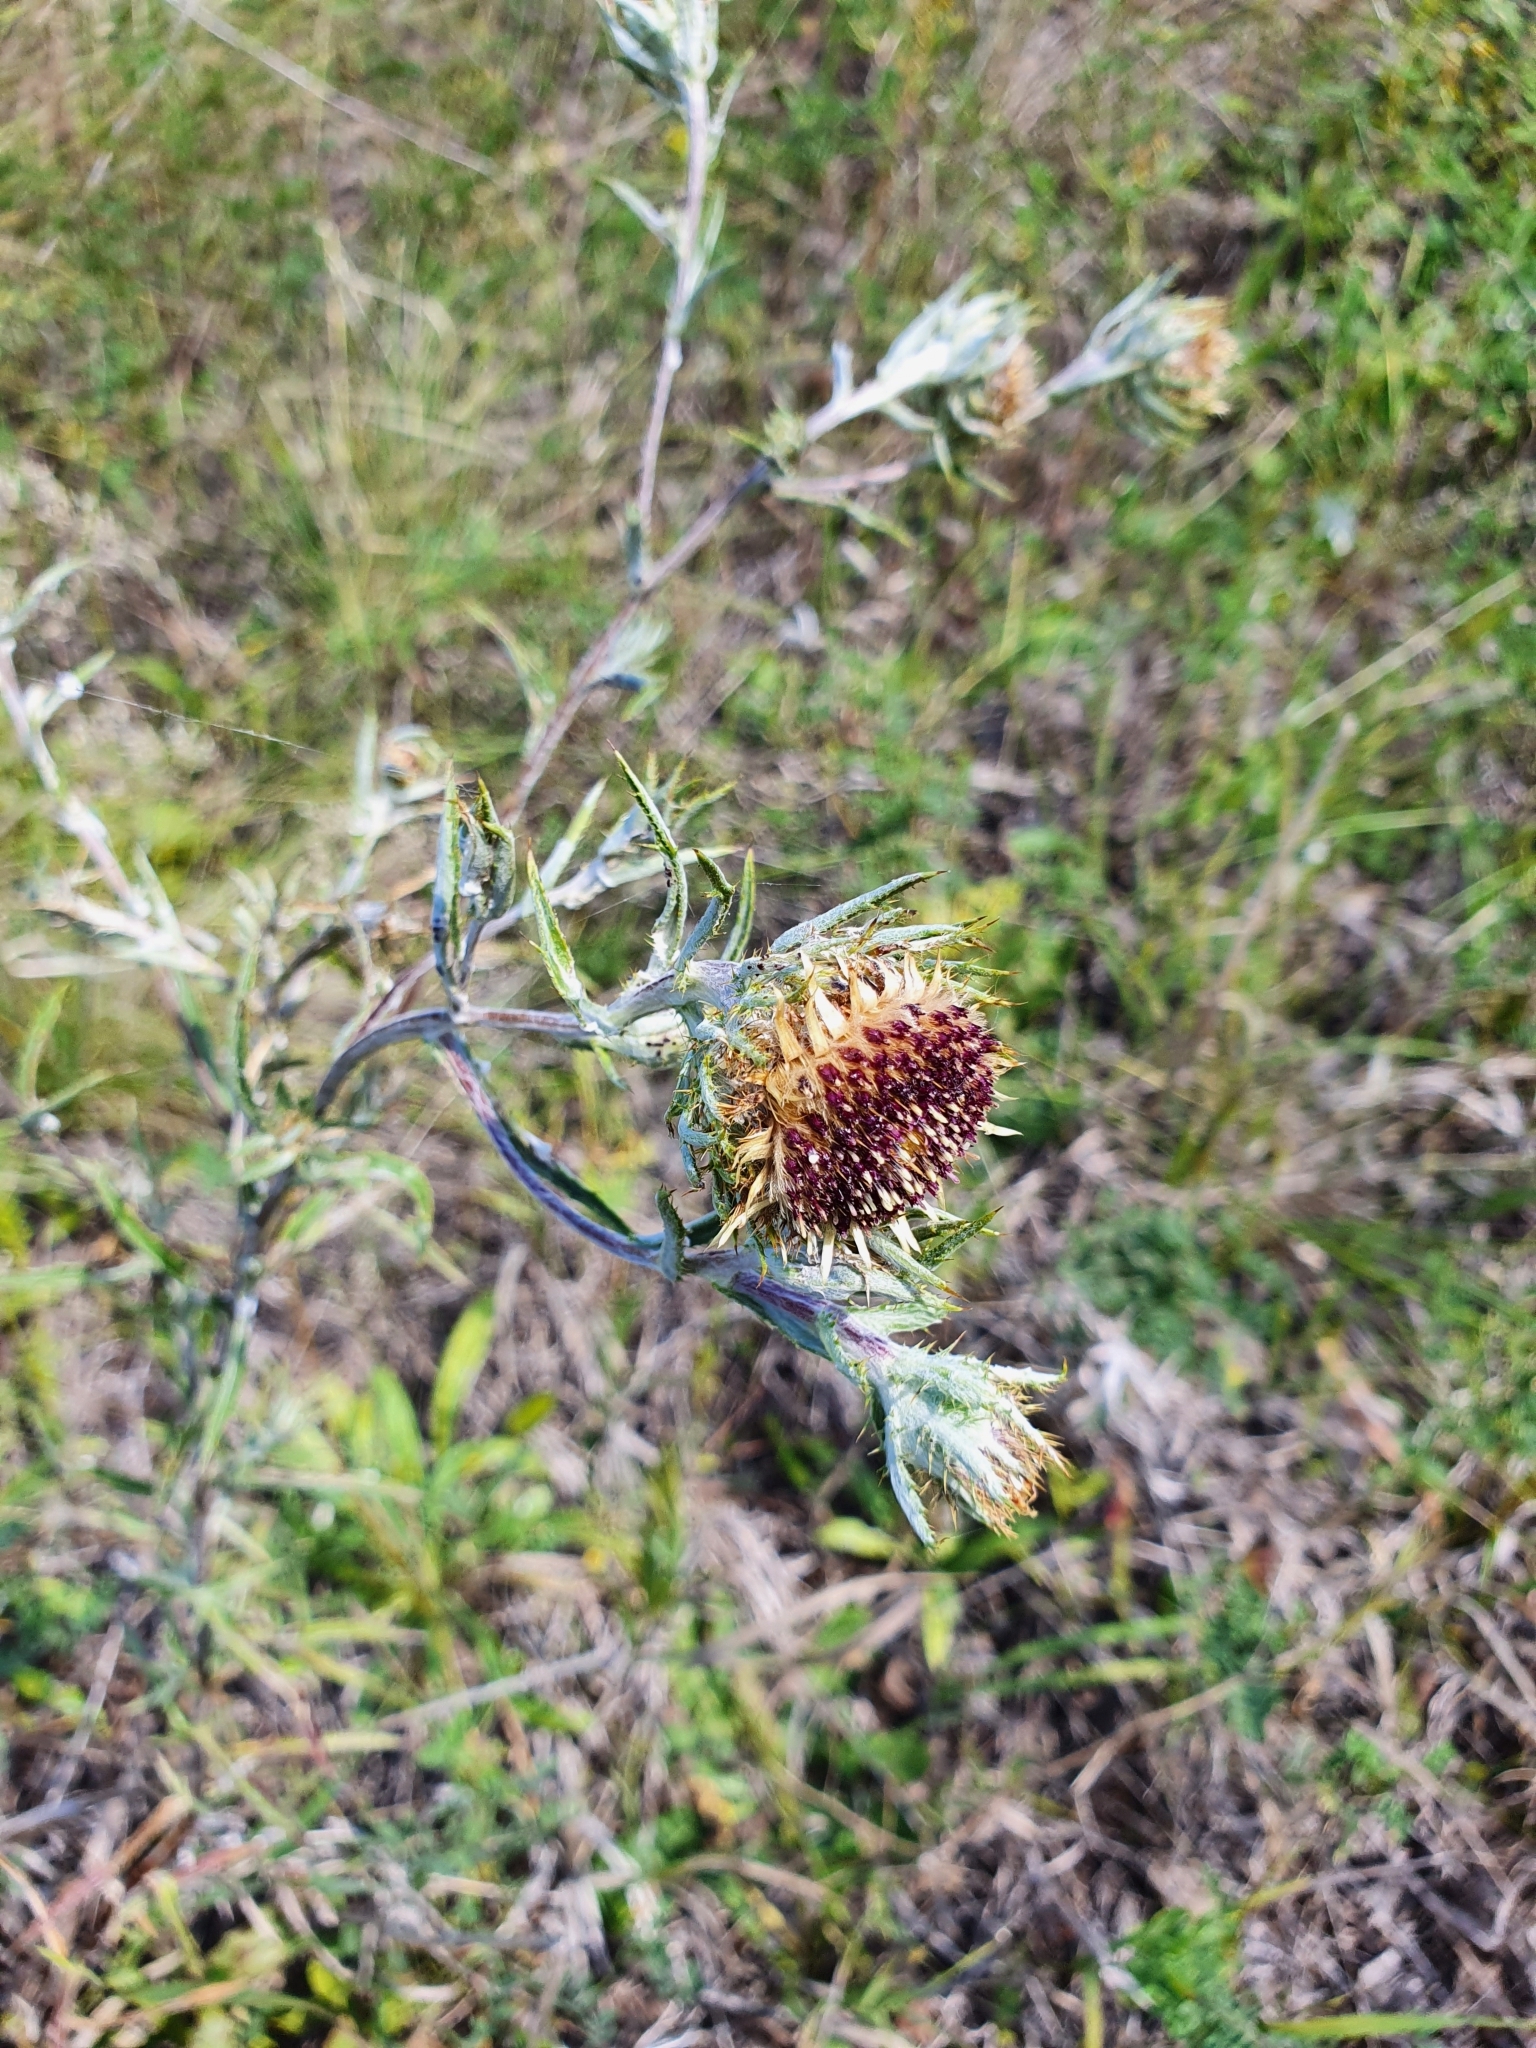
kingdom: Plantae
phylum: Tracheophyta
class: Magnoliopsida
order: Asterales
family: Asteraceae
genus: Carlina
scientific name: Carlina biebersteinii
